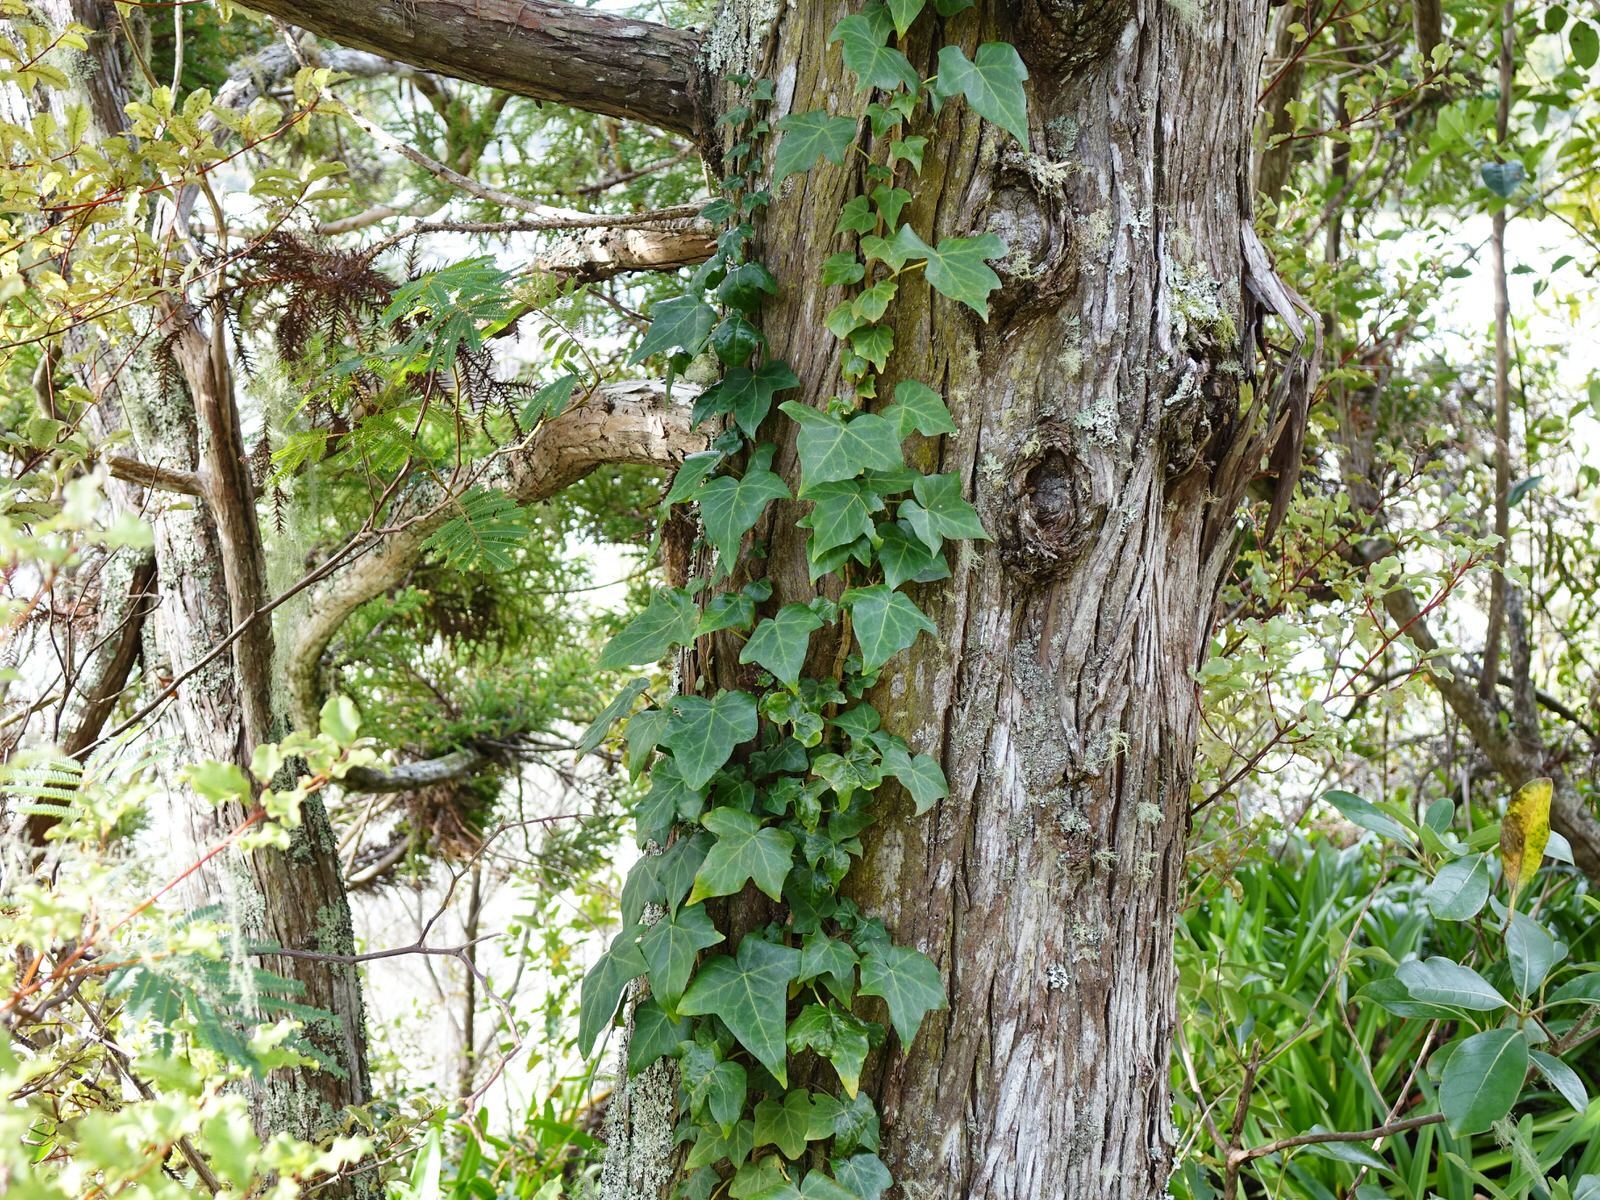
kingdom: Plantae
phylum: Tracheophyta
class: Magnoliopsida
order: Apiales
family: Araliaceae
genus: Hedera
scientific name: Hedera helix
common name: Ivy
